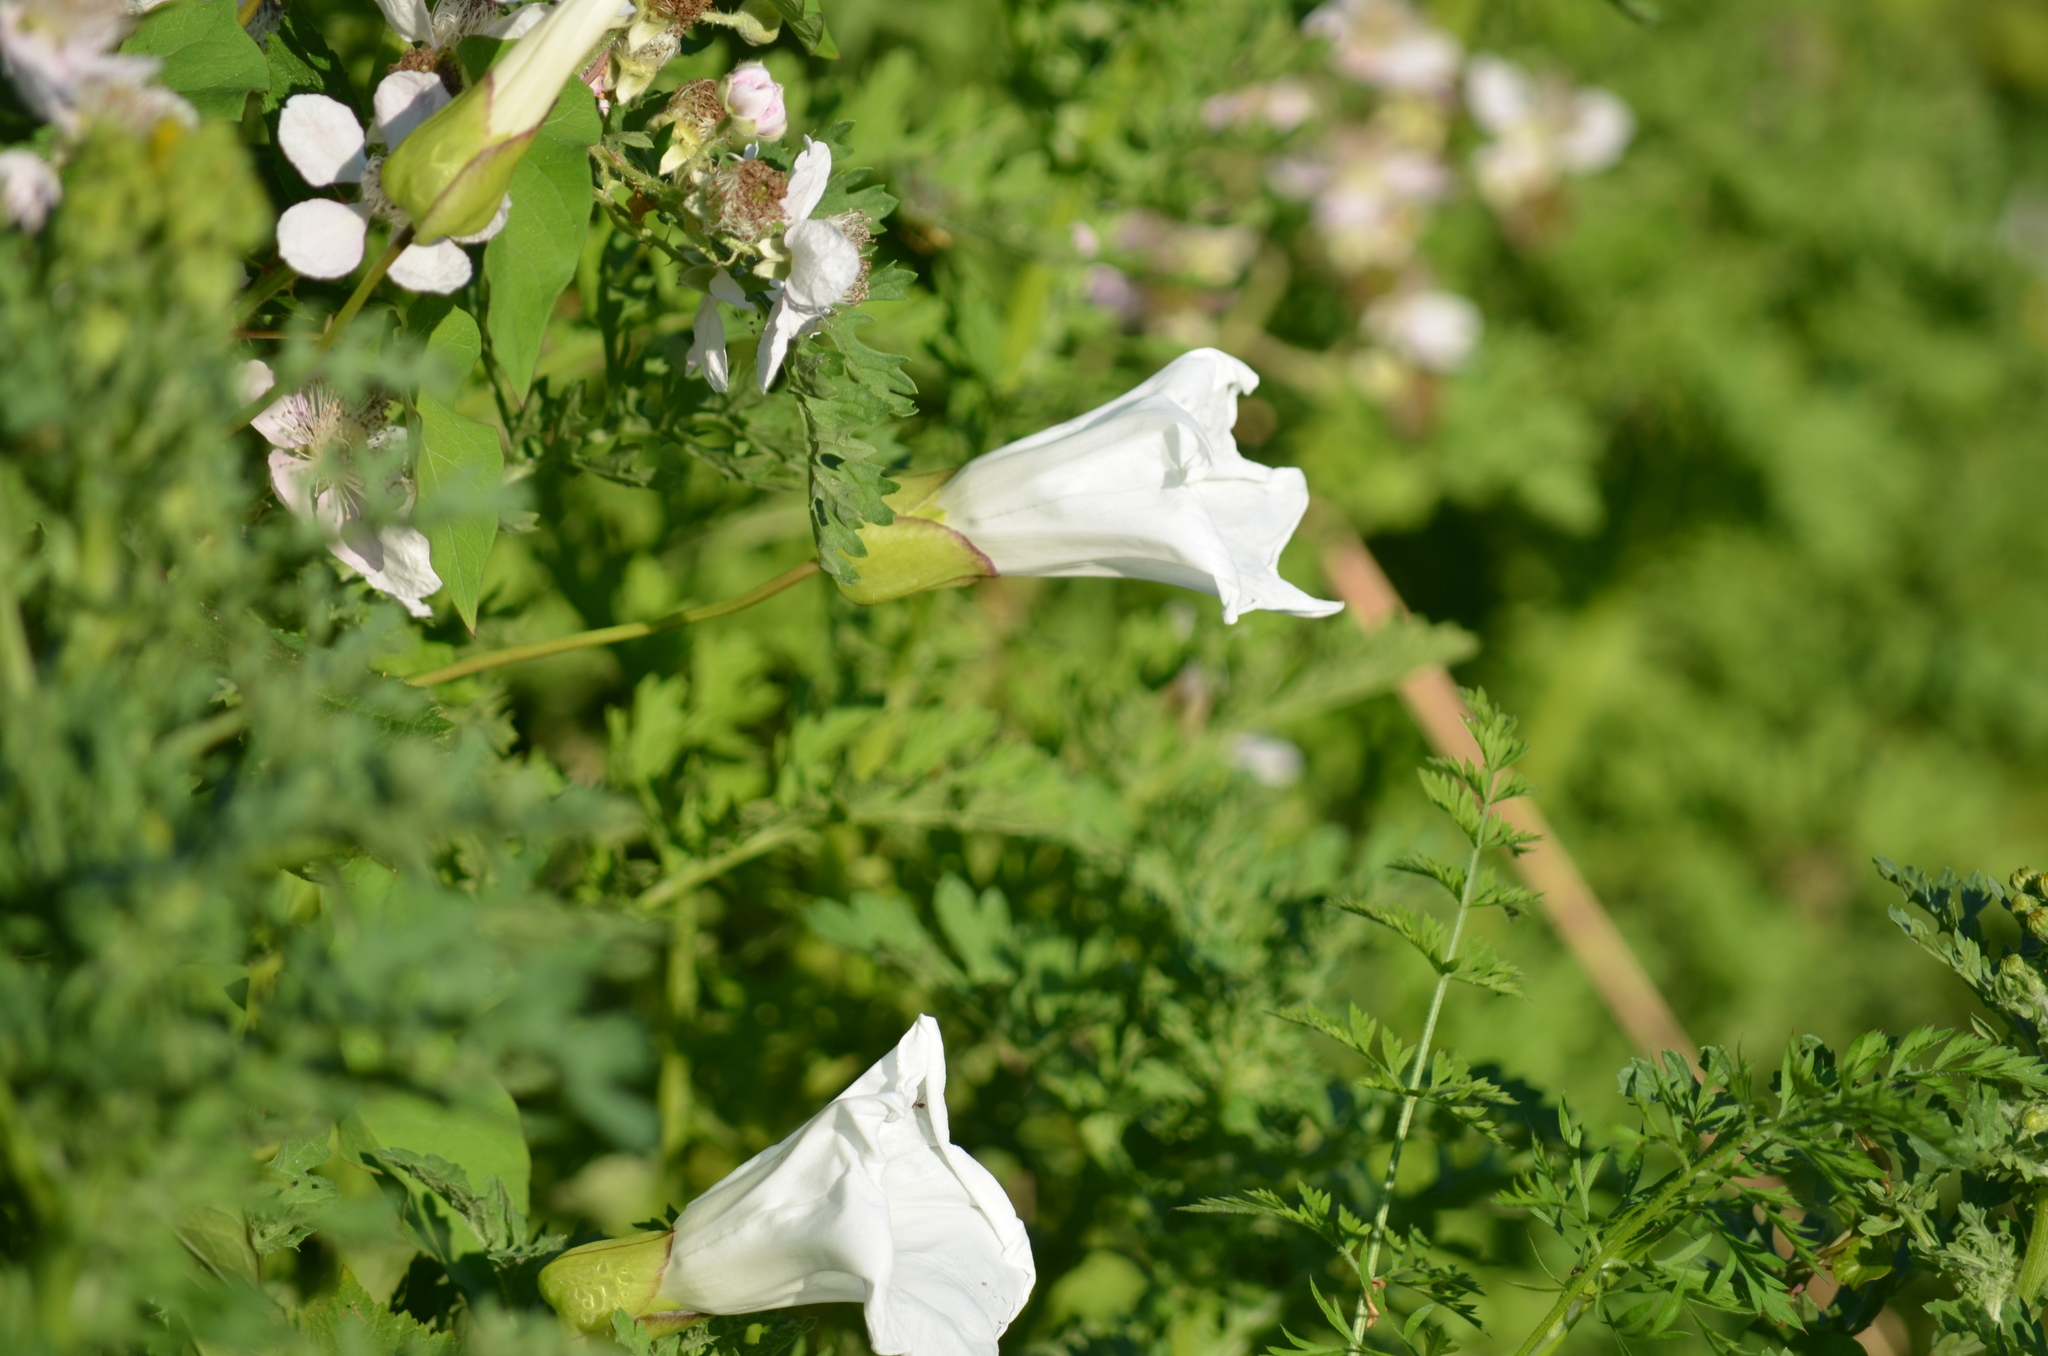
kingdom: Plantae
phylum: Tracheophyta
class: Magnoliopsida
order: Solanales
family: Convolvulaceae
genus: Calystegia
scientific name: Calystegia silvatica
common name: Large bindweed
